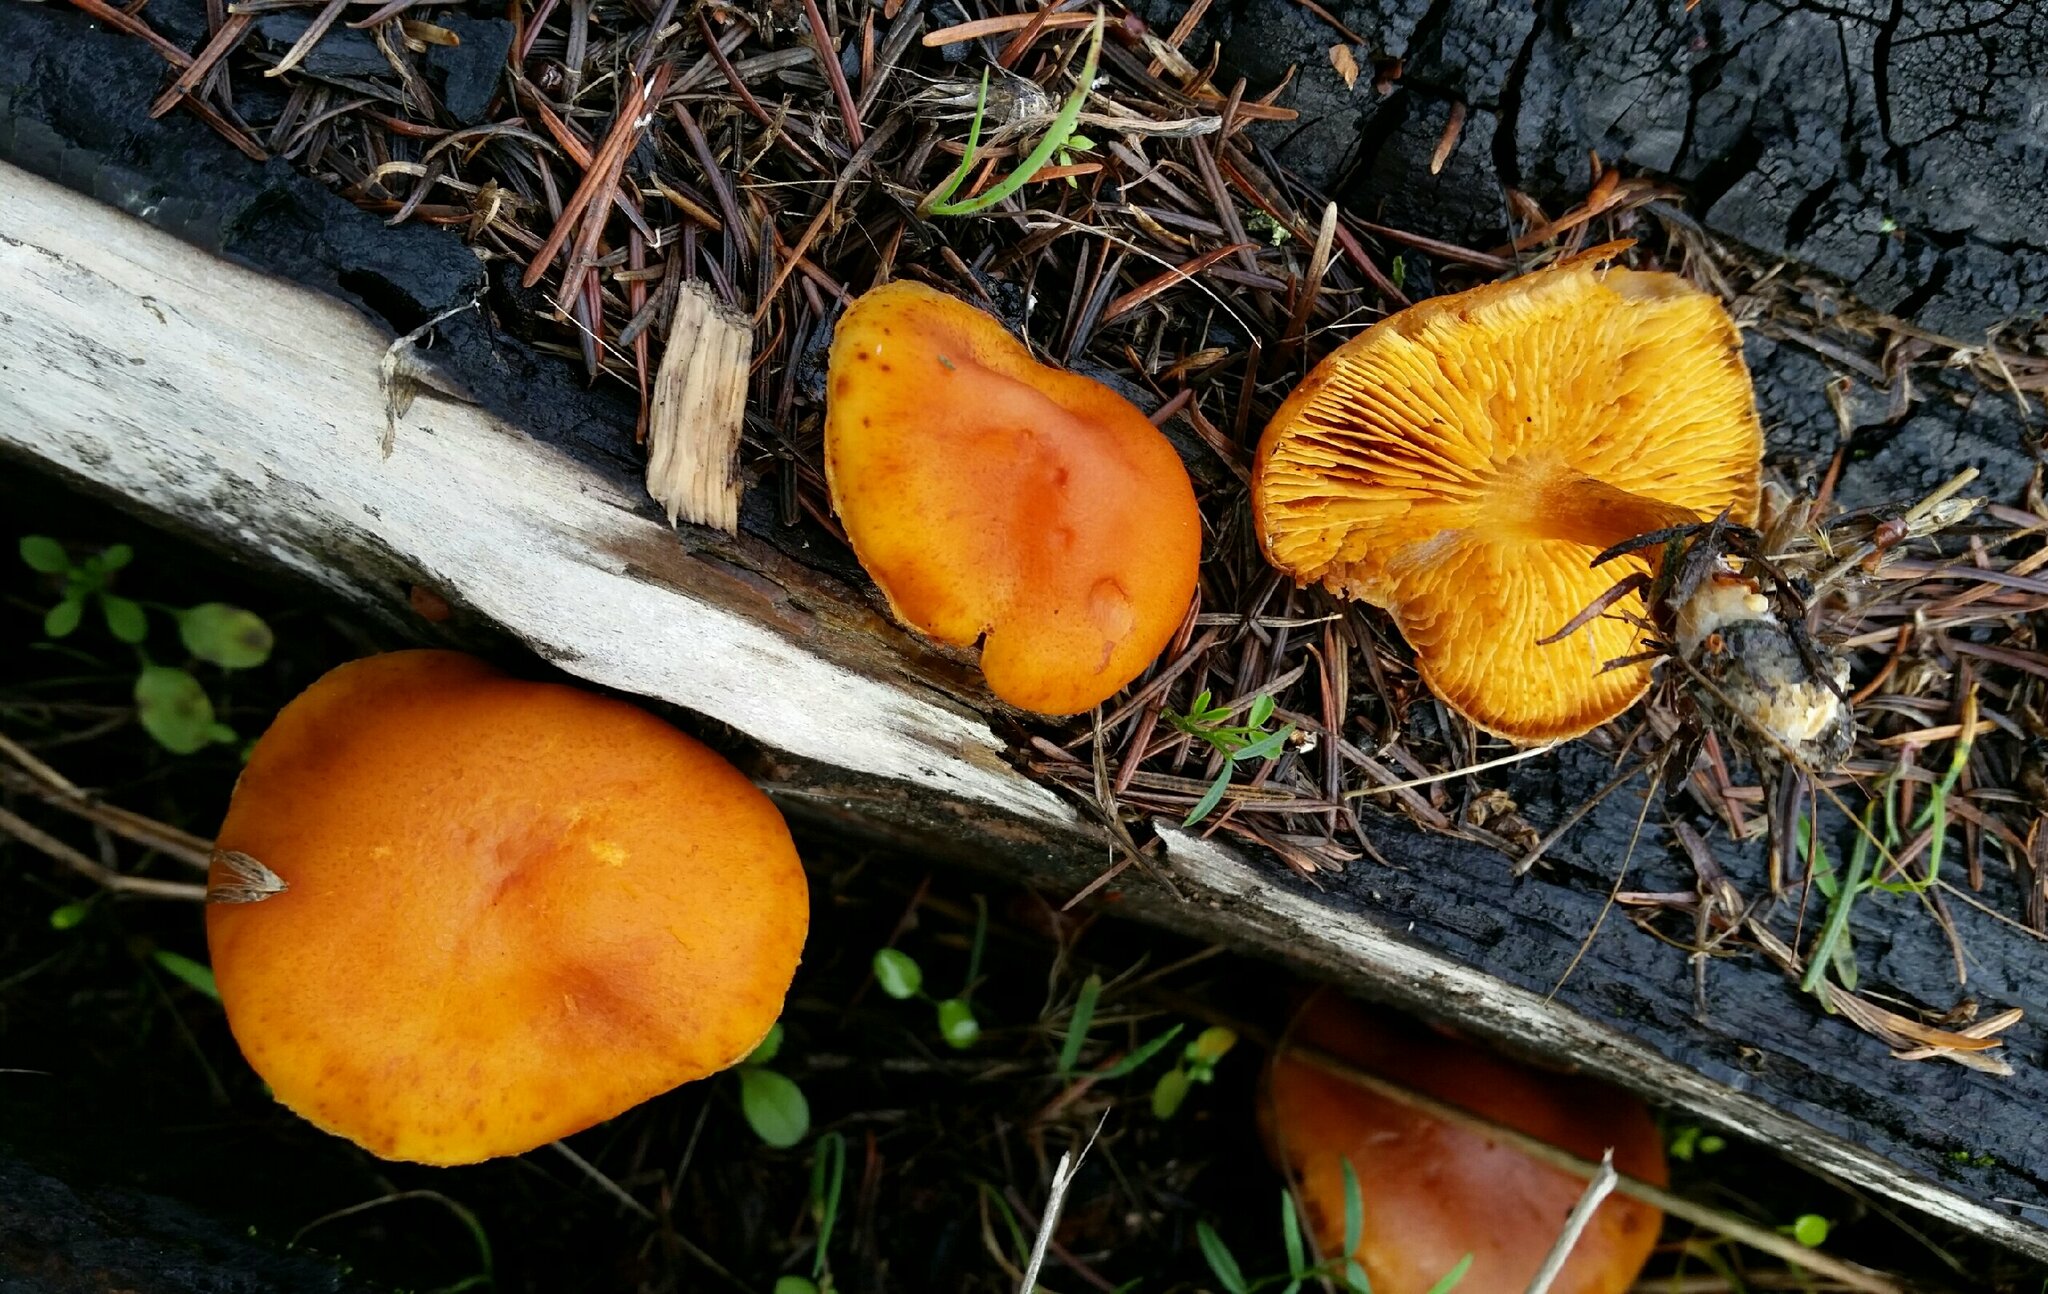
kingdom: Fungi
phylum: Basidiomycota
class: Agaricomycetes
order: Agaricales
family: Hymenogastraceae
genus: Gymnopilus
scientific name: Gymnopilus aurantiophyllus
